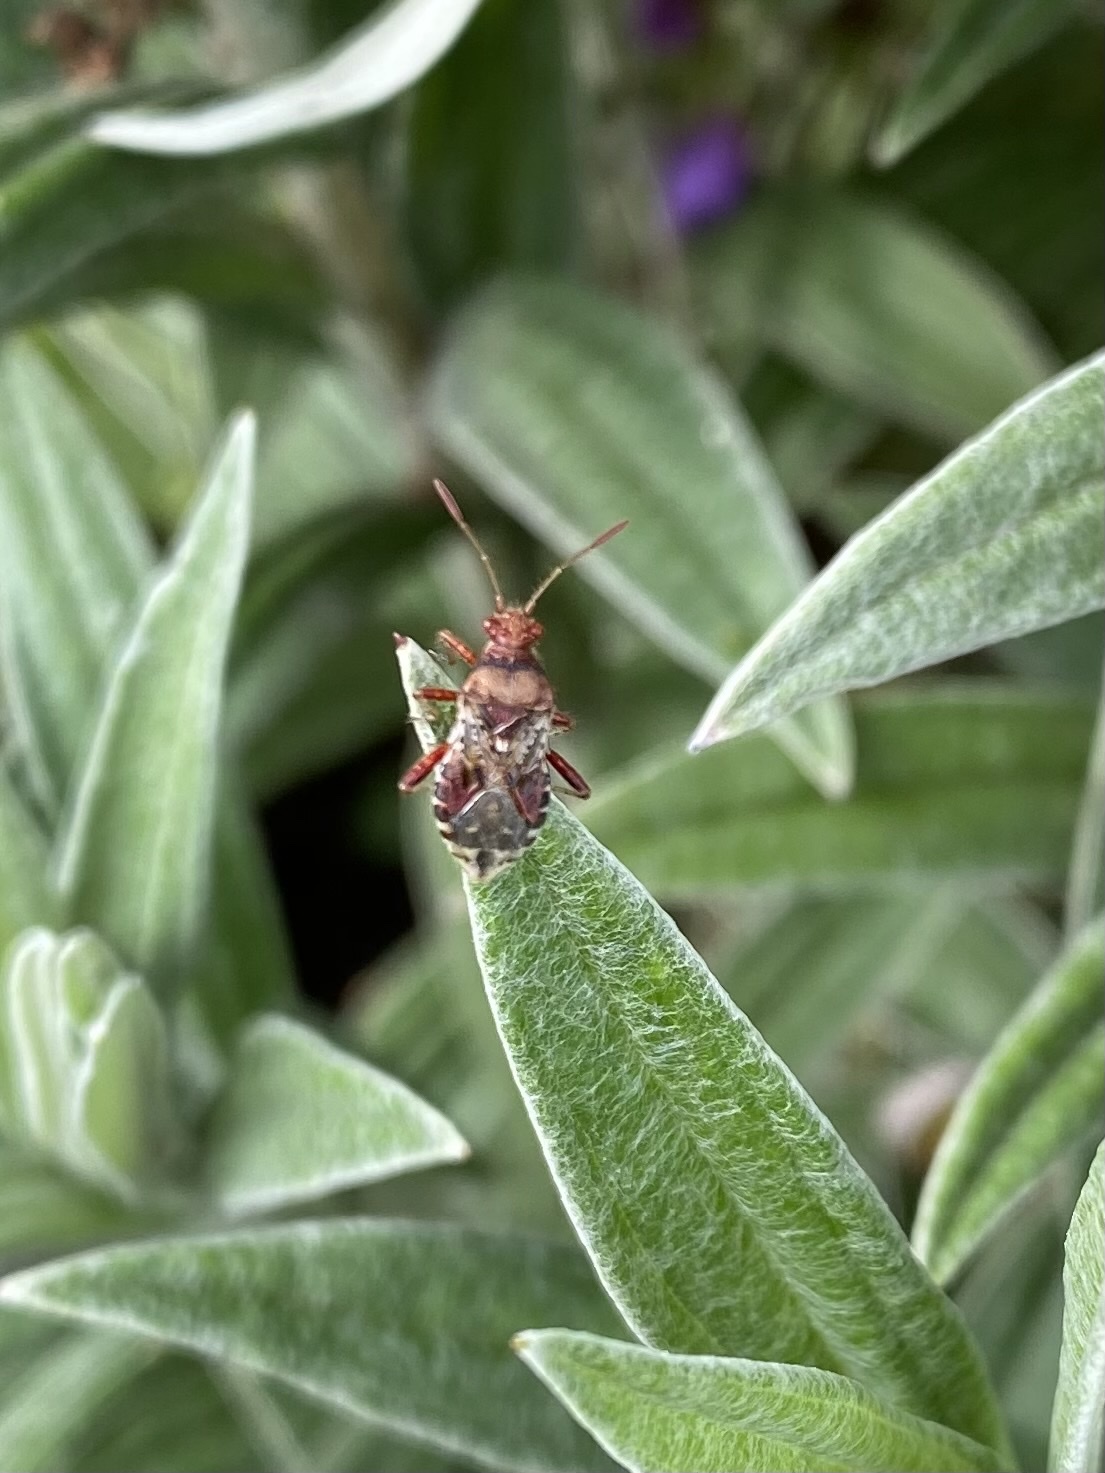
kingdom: Animalia
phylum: Arthropoda
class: Insecta
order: Hemiptera
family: Rhopalidae
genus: Rhopalus
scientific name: Rhopalus subrufus
